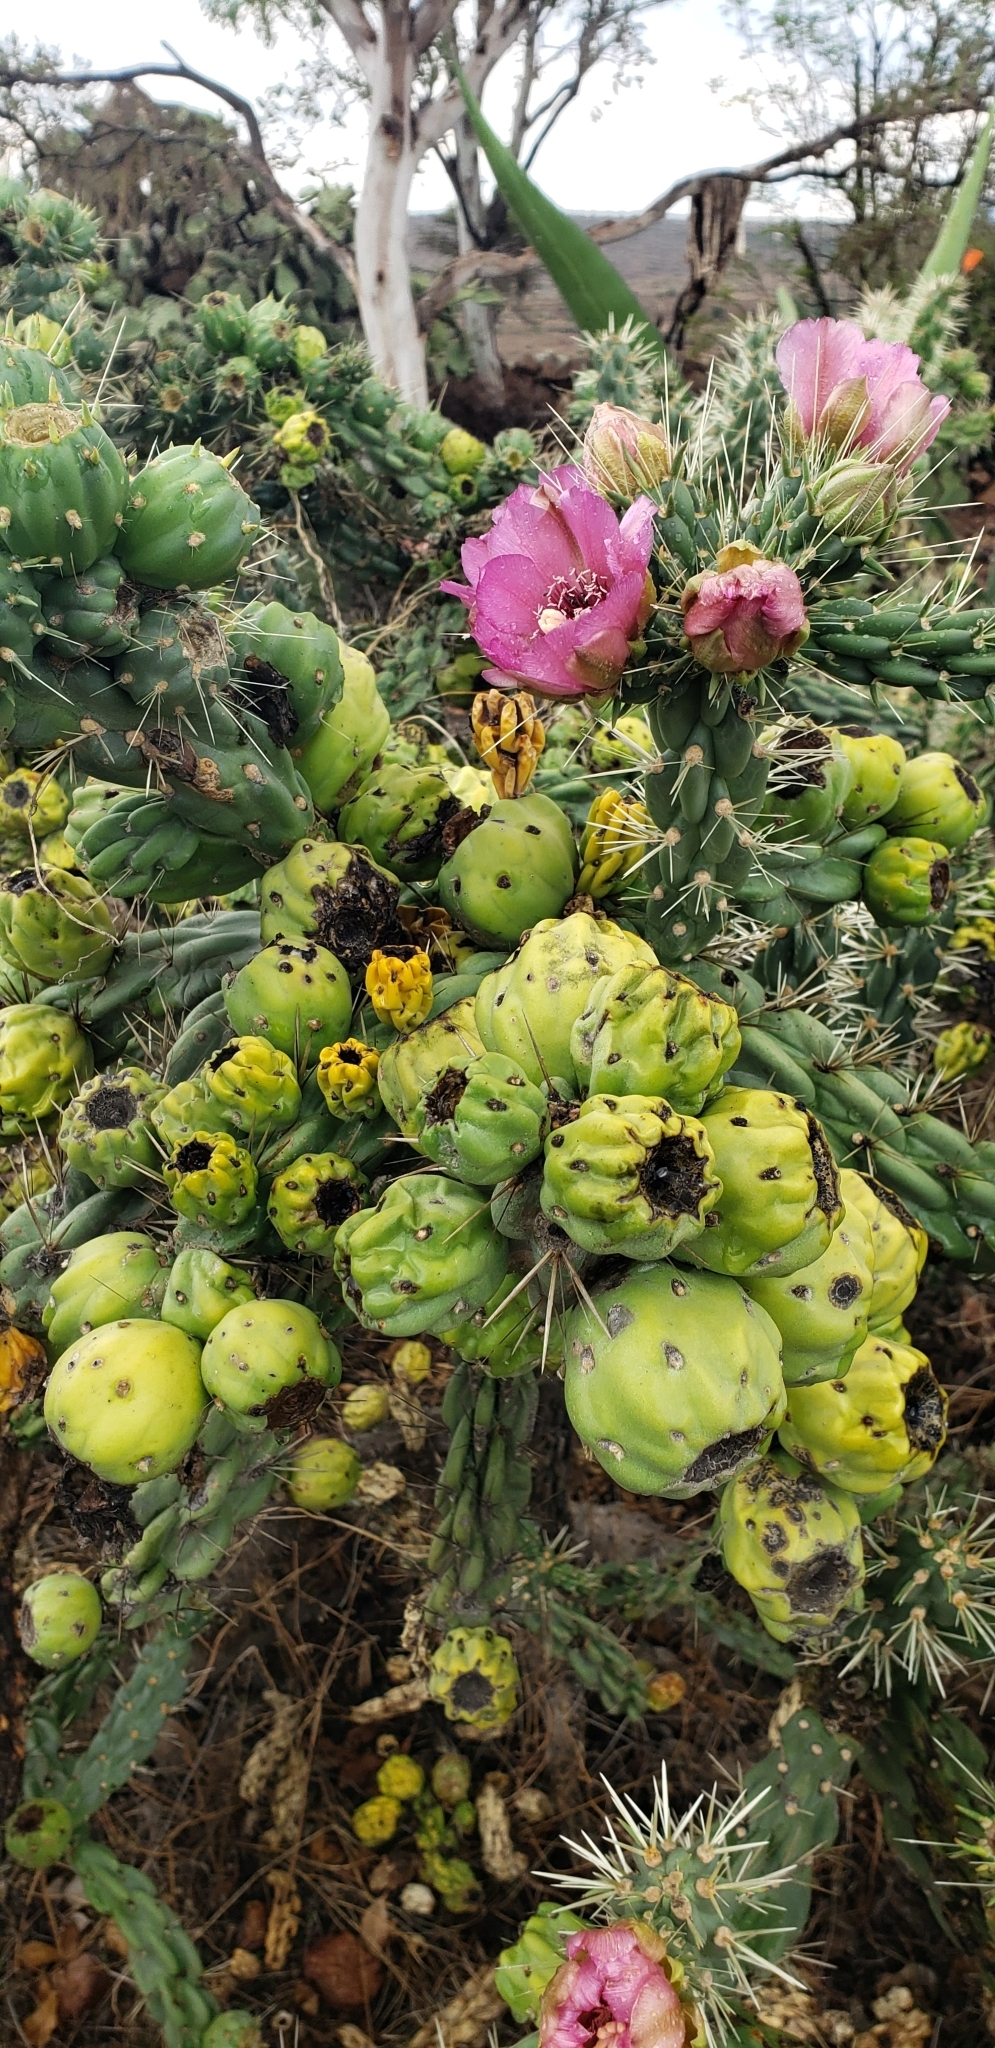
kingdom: Plantae
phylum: Tracheophyta
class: Magnoliopsida
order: Caryophyllales
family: Cactaceae
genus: Cylindropuntia
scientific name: Cylindropuntia imbricata
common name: Candelabrum cactus
